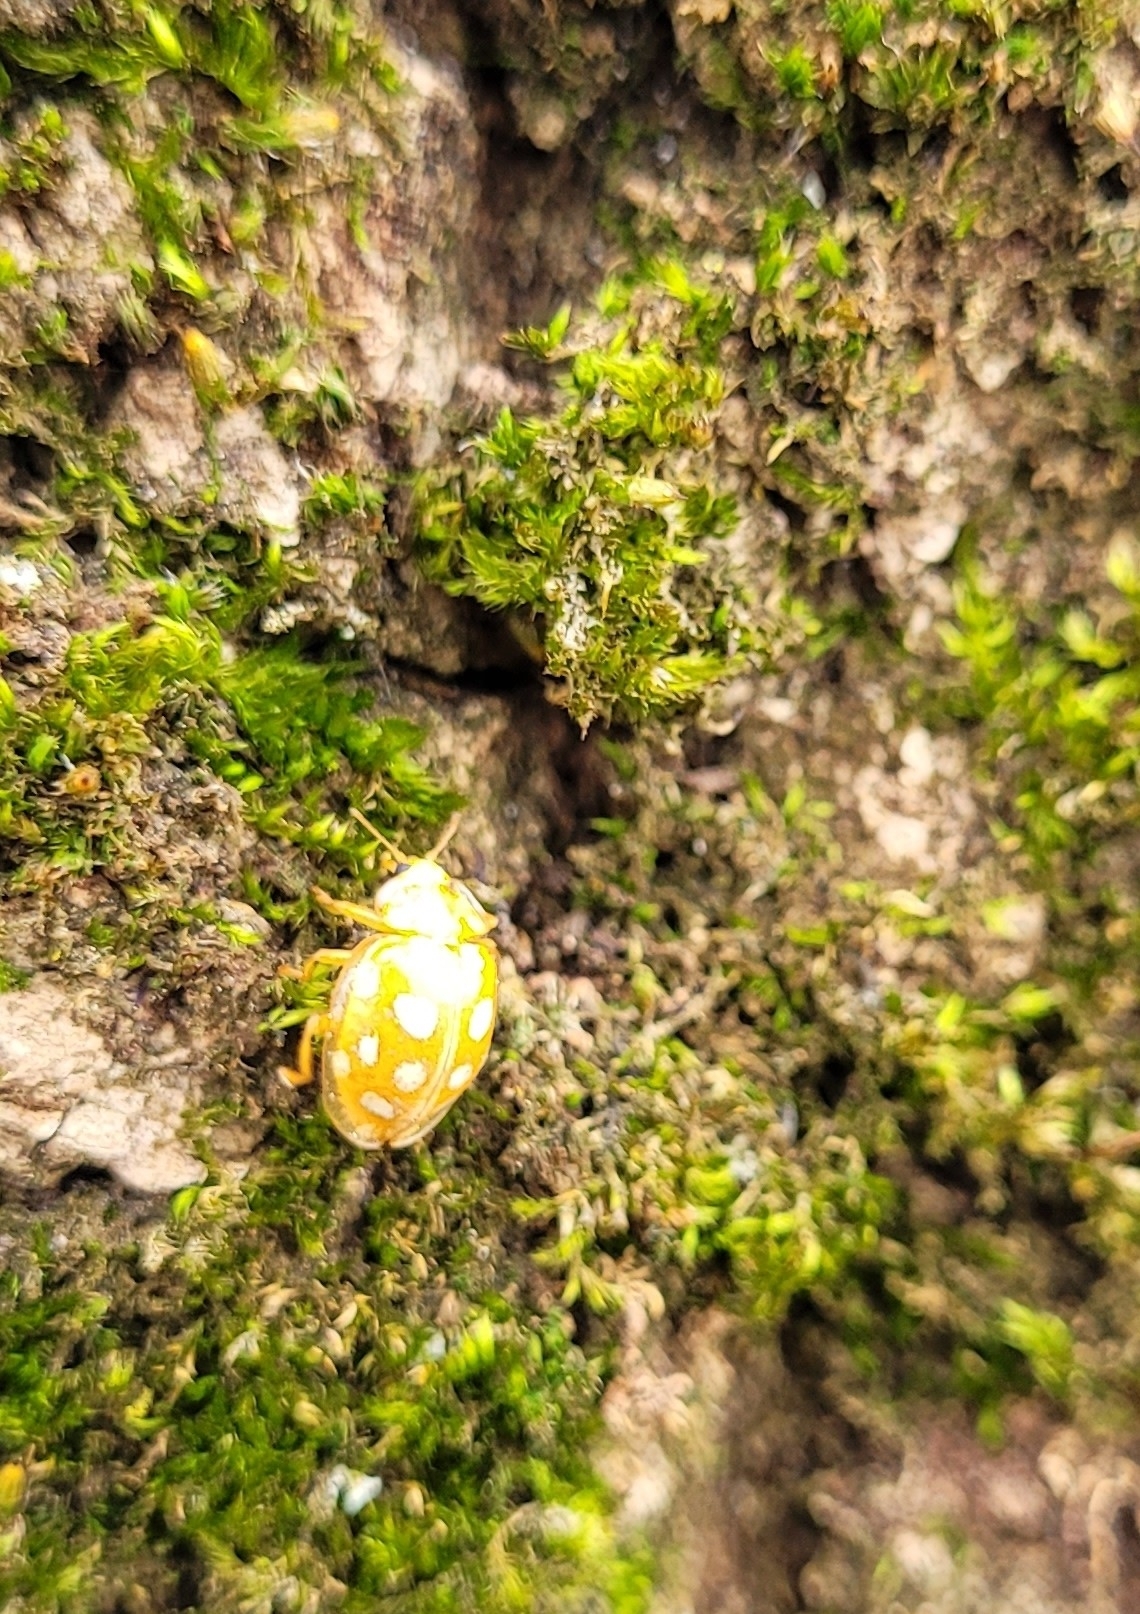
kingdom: Animalia
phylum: Arthropoda
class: Insecta
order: Coleoptera
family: Coccinellidae
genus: Halyzia
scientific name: Halyzia sedecimguttata
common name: Orange ladybird
